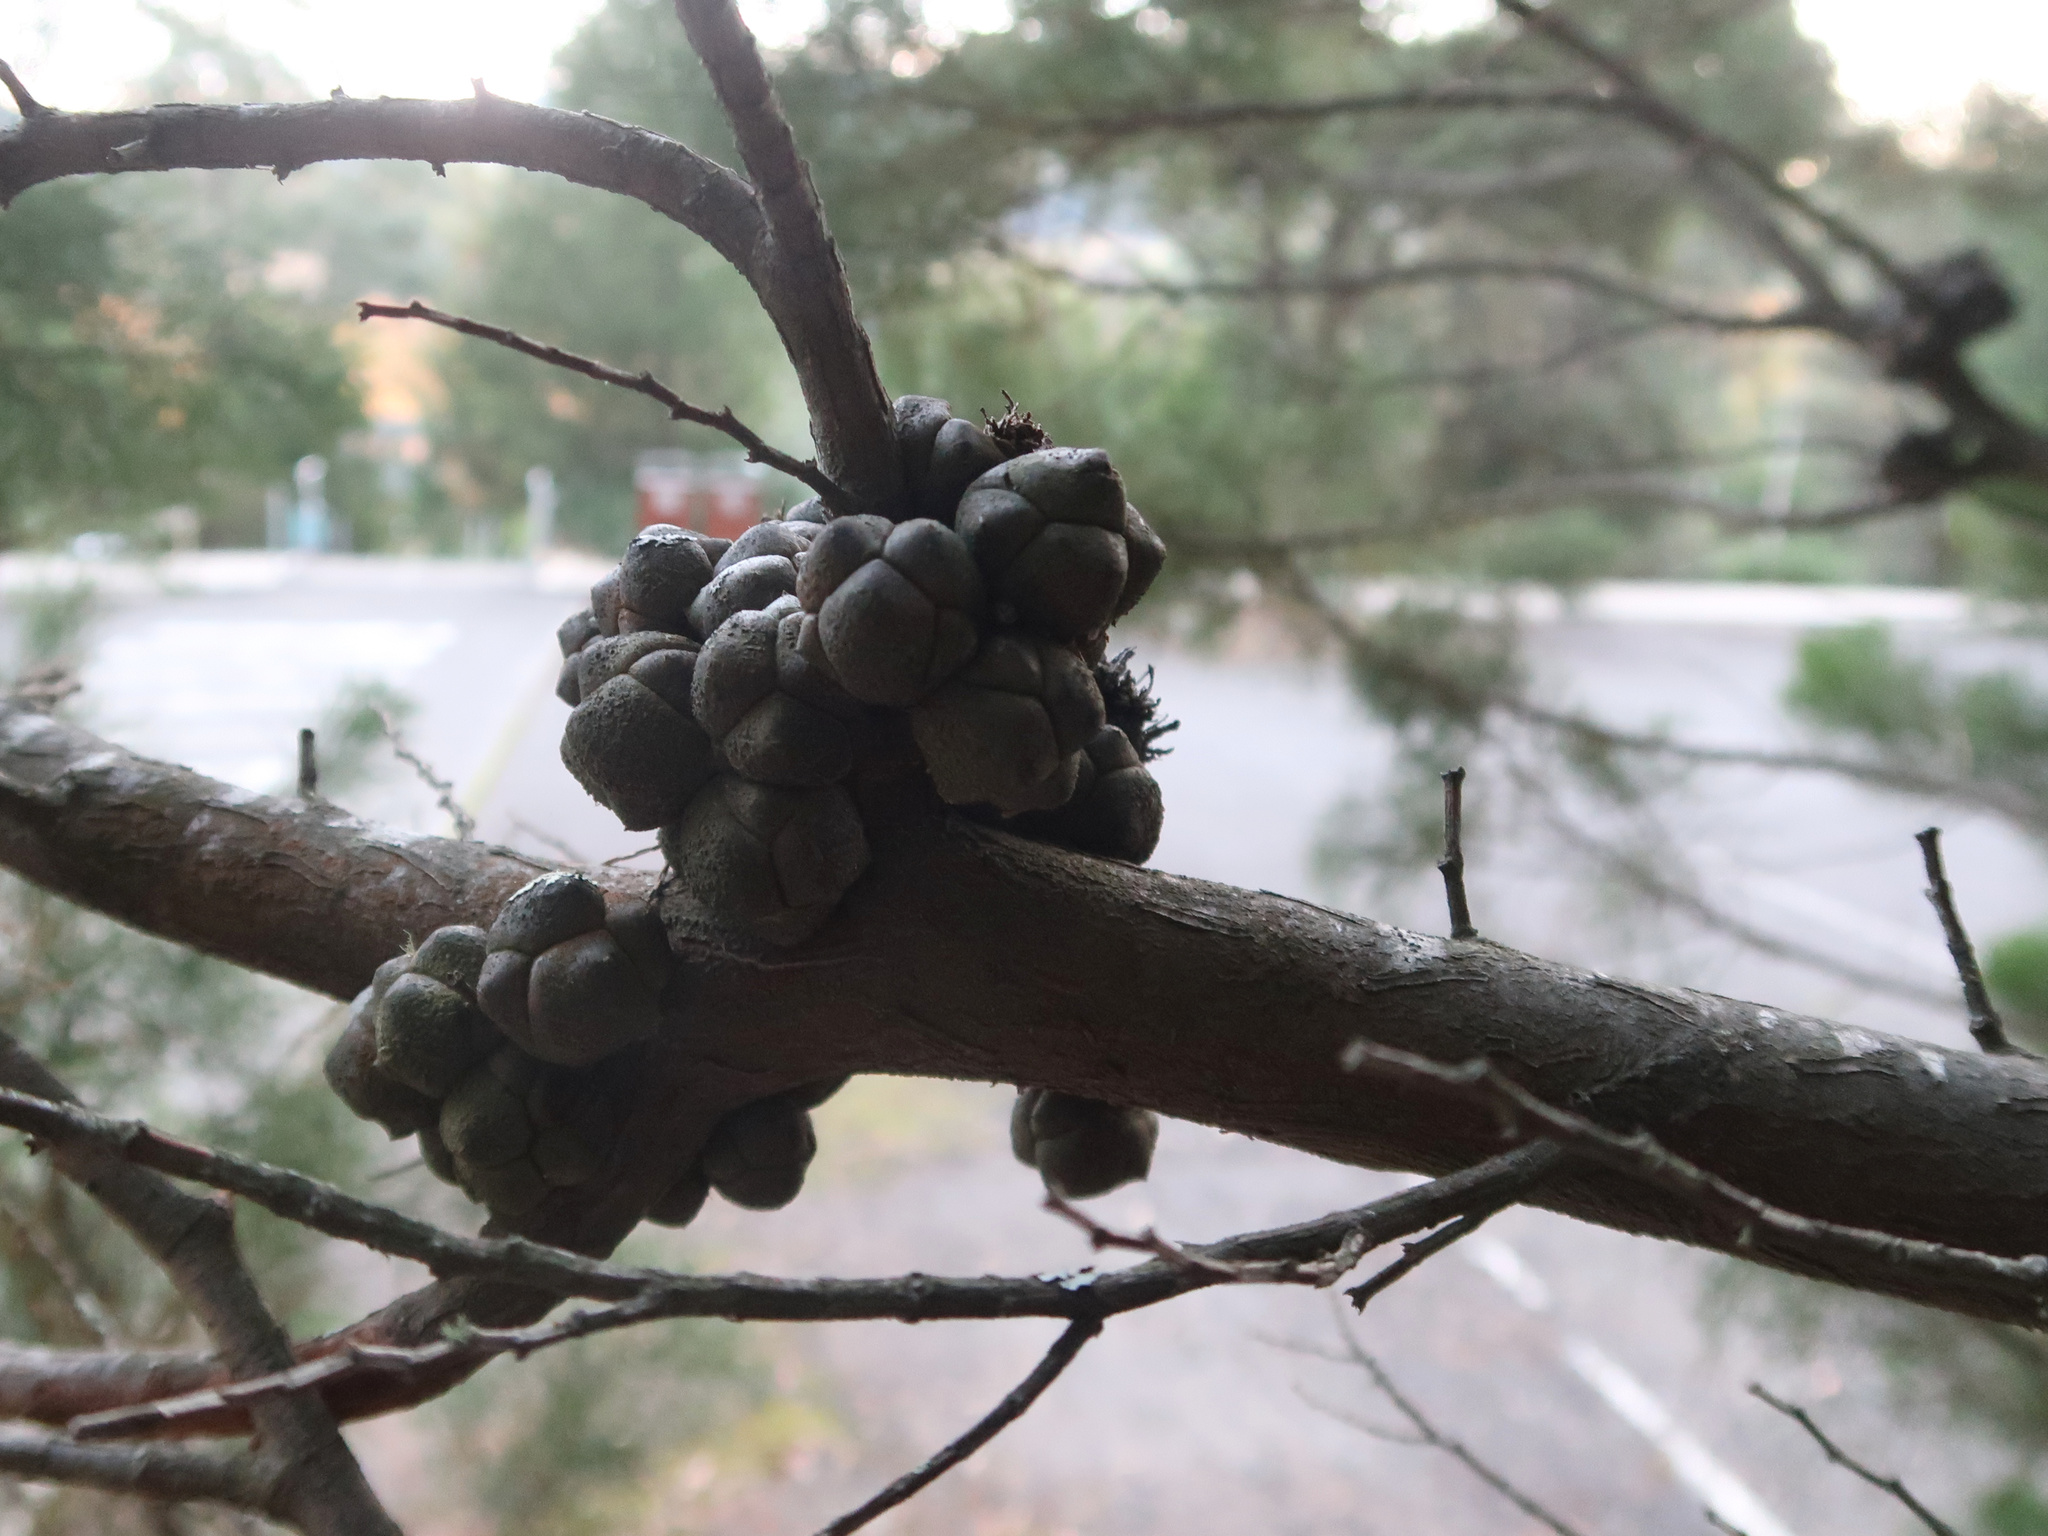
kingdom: Plantae
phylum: Tracheophyta
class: Pinopsida
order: Pinales
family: Cupressaceae
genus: Callitris
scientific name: Callitris rhomboidea
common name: Illawara mountain pine
